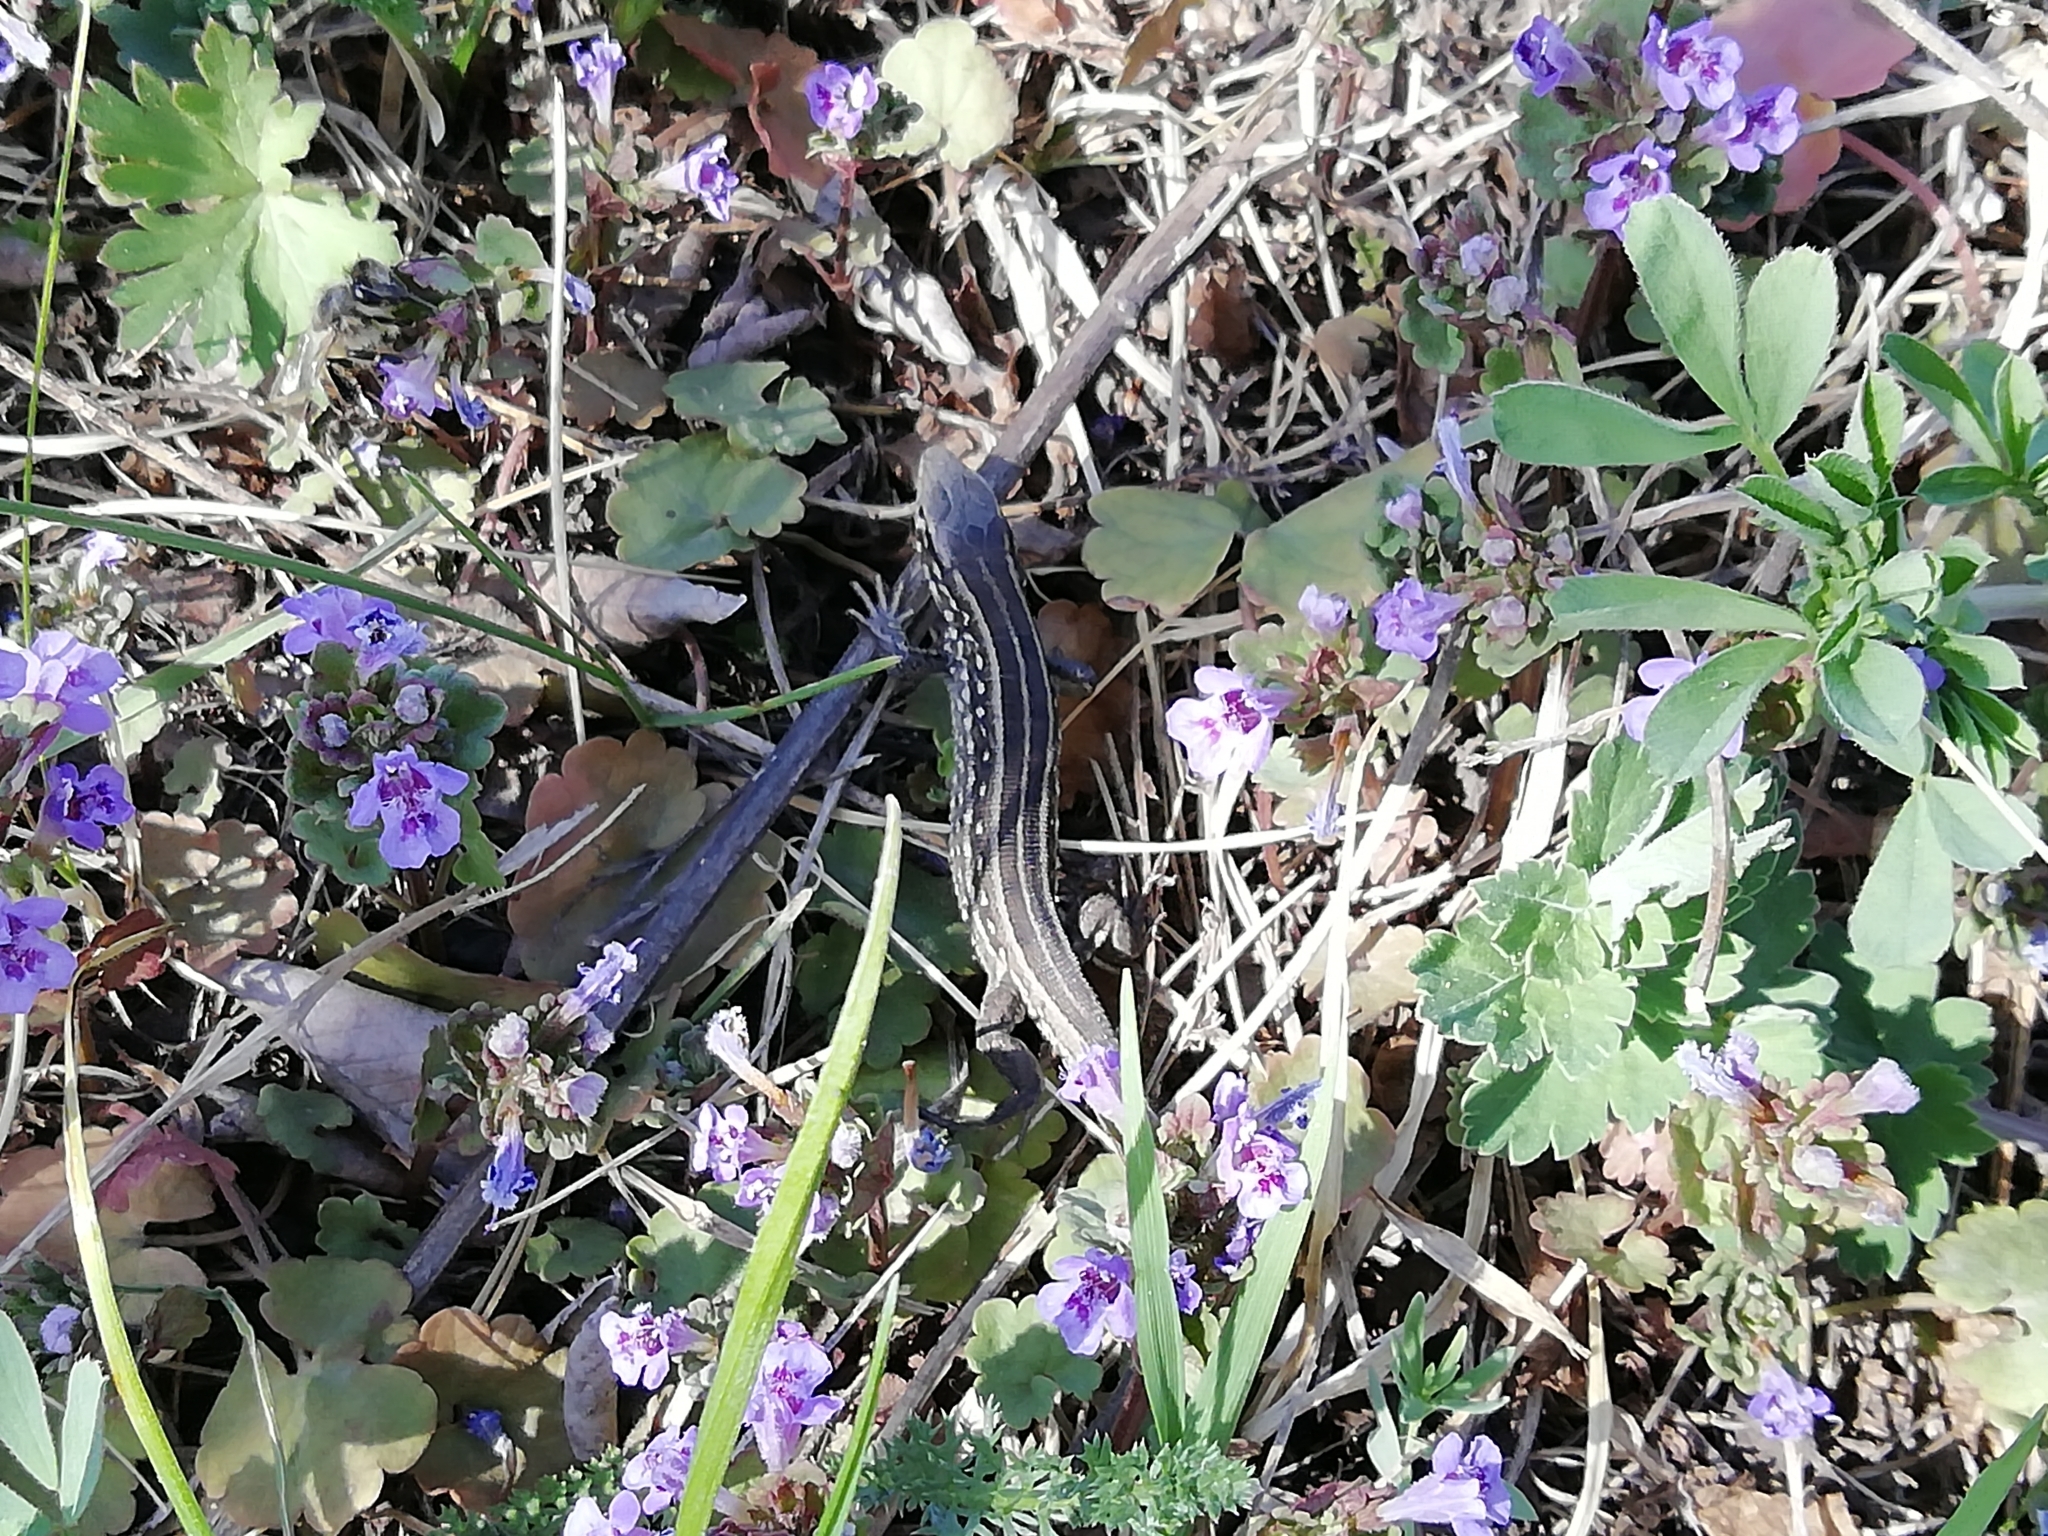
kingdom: Animalia
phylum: Chordata
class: Squamata
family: Lacertidae
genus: Lacerta
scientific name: Lacerta agilis
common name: Sand lizard
